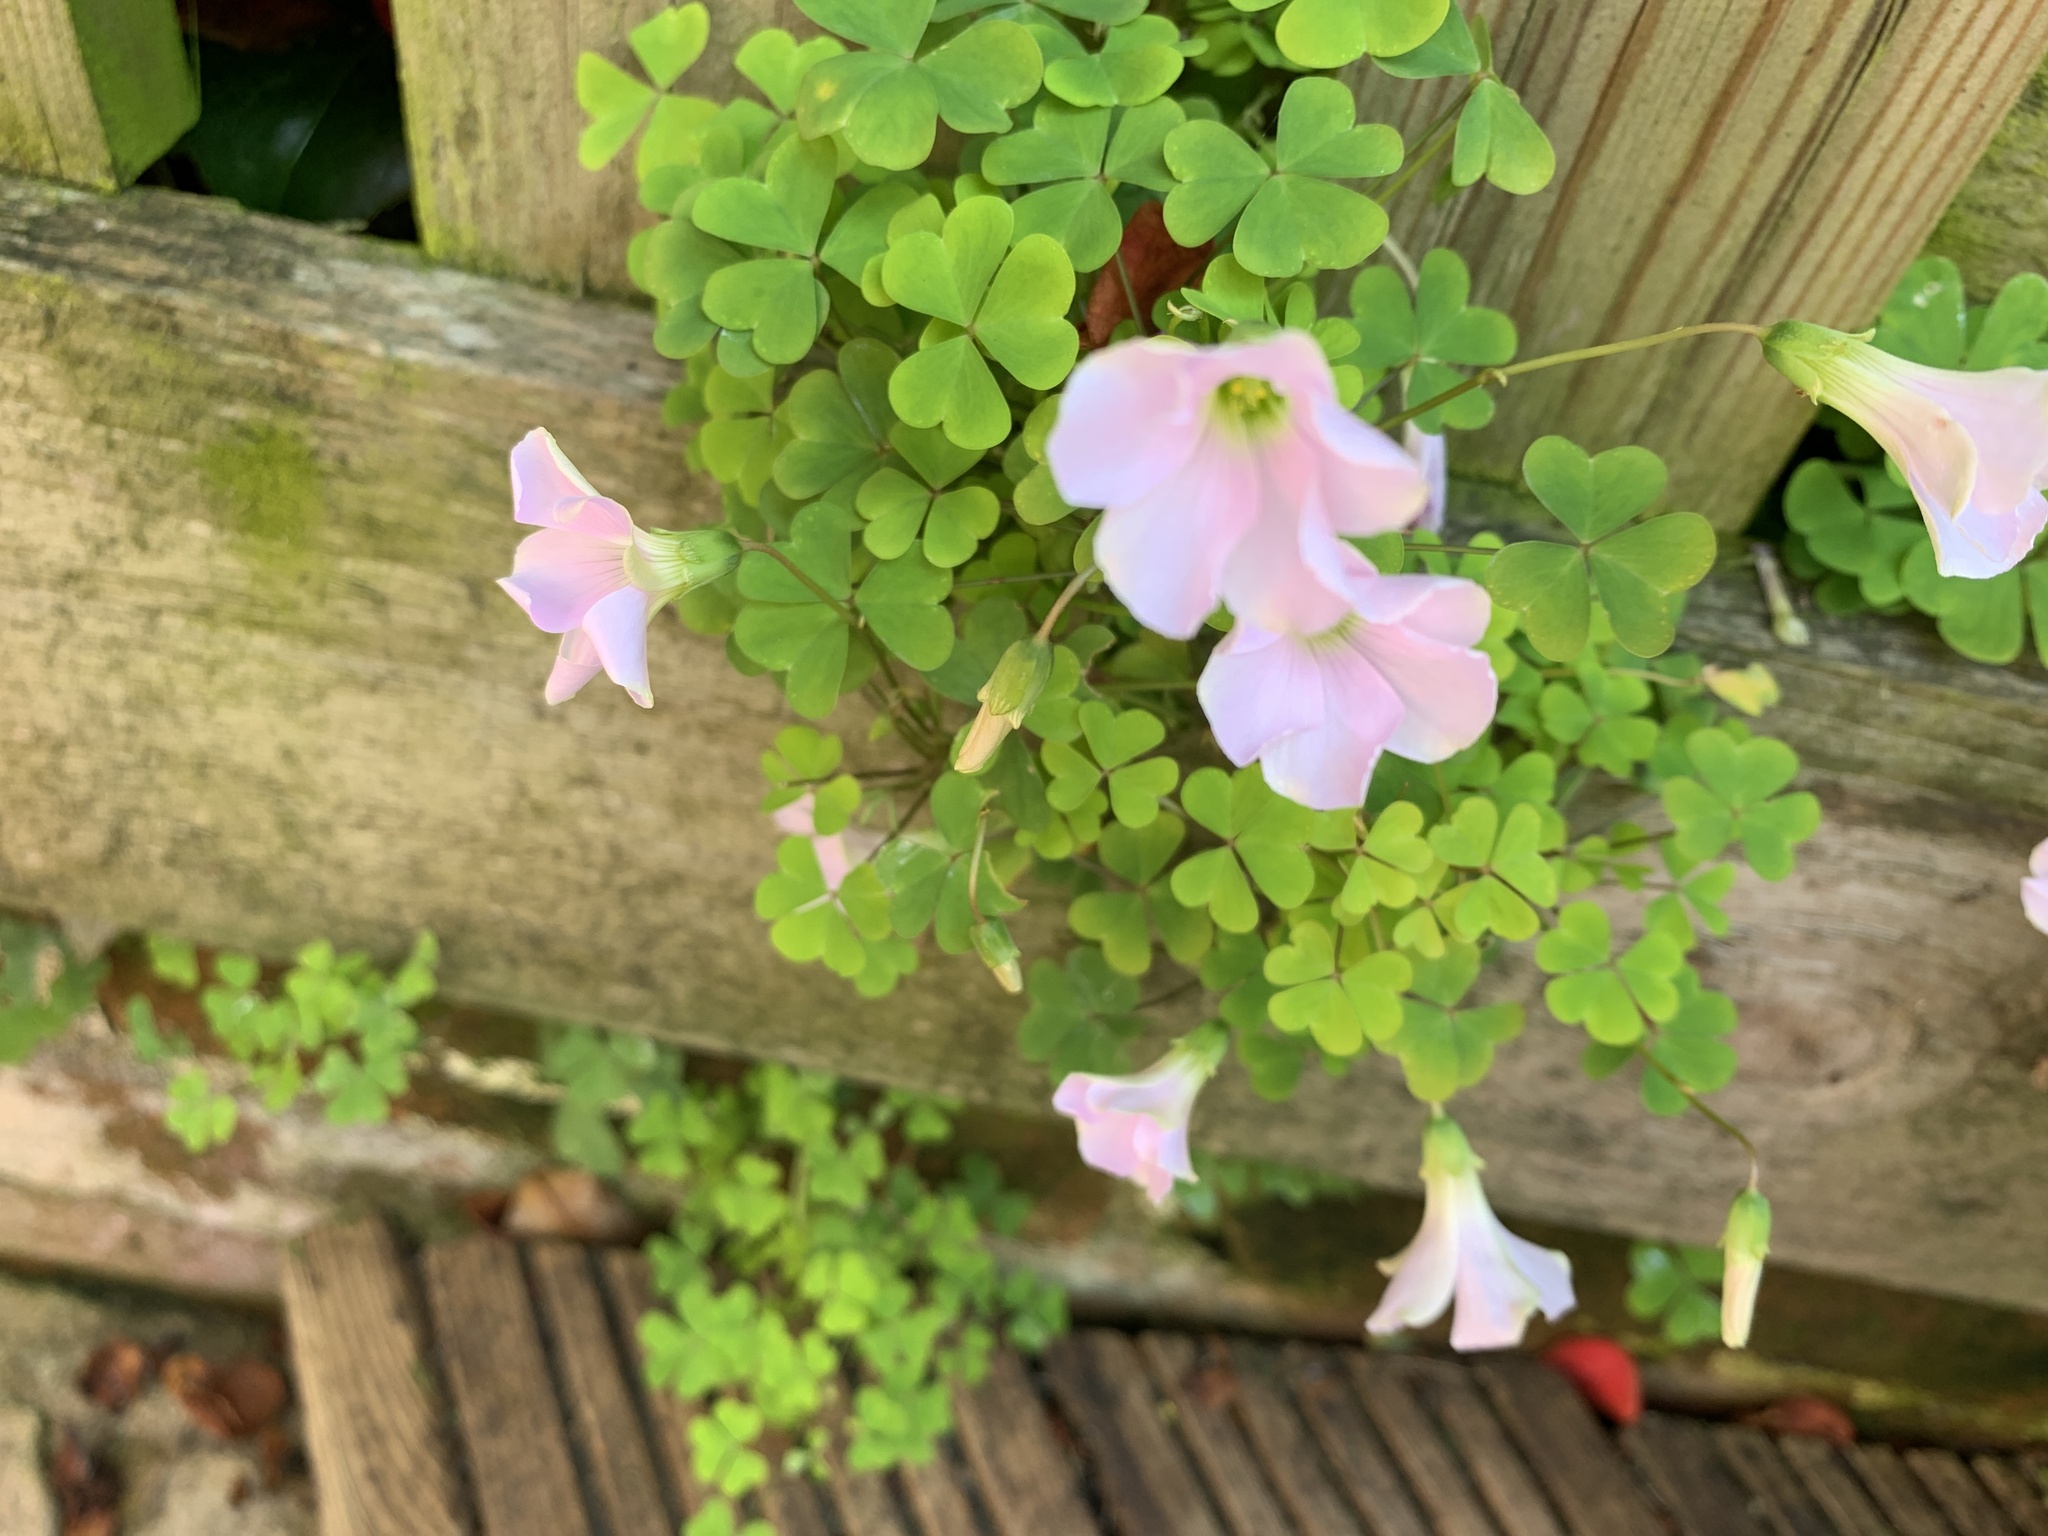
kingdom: Plantae
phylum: Tracheophyta
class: Magnoliopsida
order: Oxalidales
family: Oxalidaceae
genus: Oxalis
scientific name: Oxalis incarnata
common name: Pale pink-sorrel
